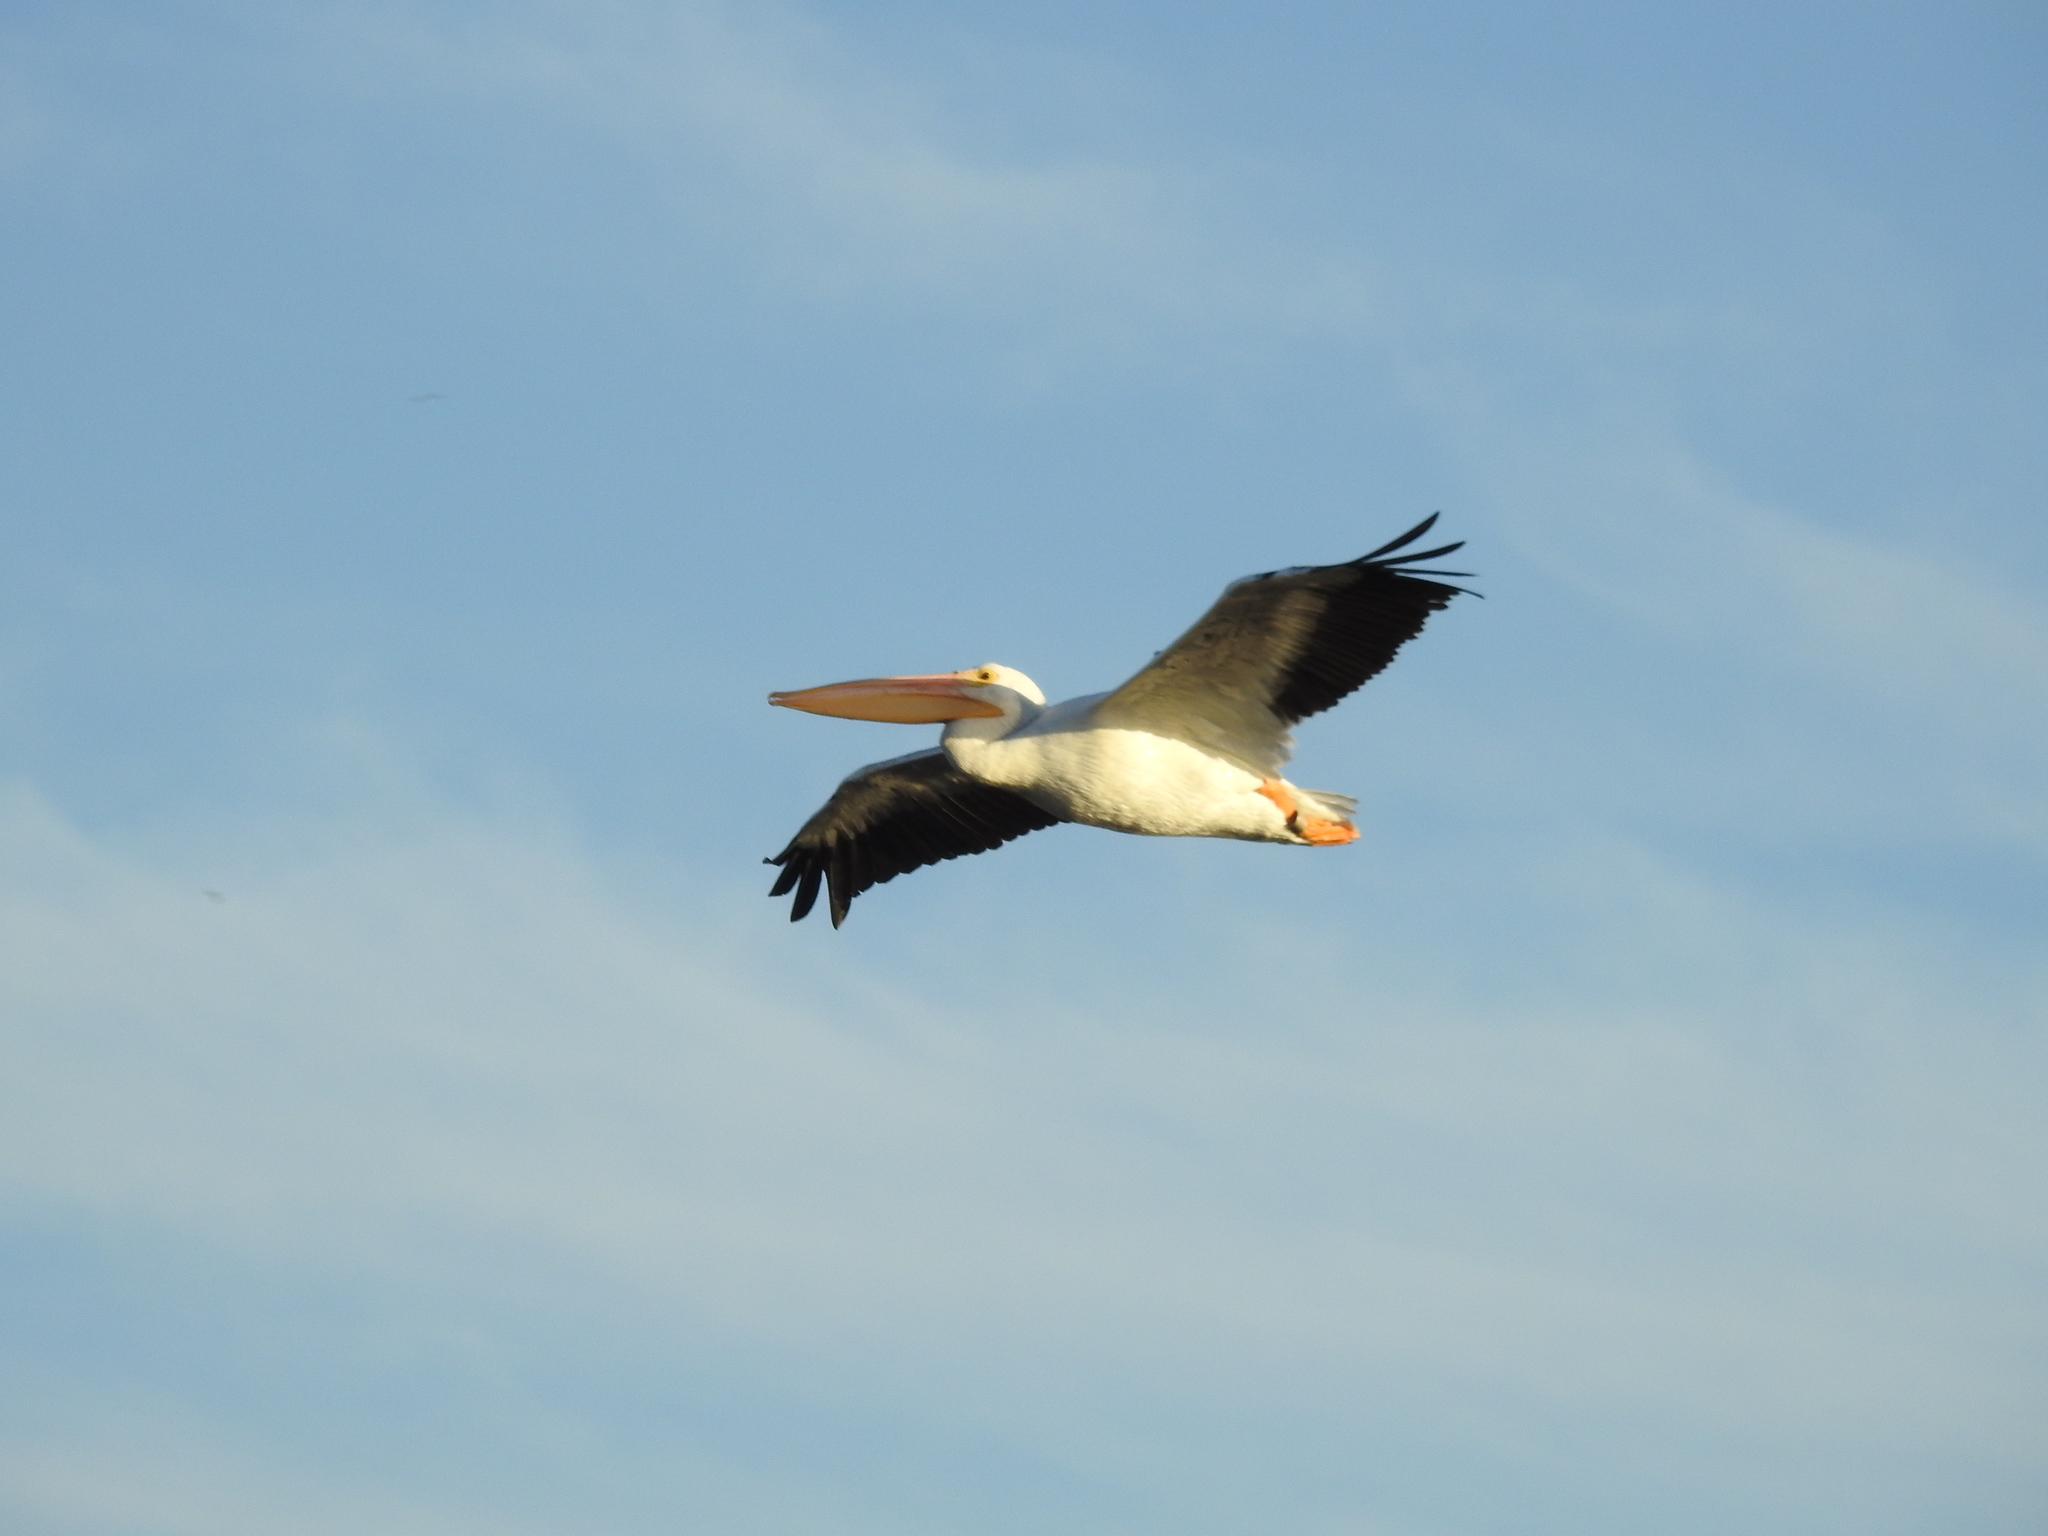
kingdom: Animalia
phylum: Chordata
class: Aves
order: Pelecaniformes
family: Pelecanidae
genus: Pelecanus
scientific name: Pelecanus erythrorhynchos
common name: American white pelican
